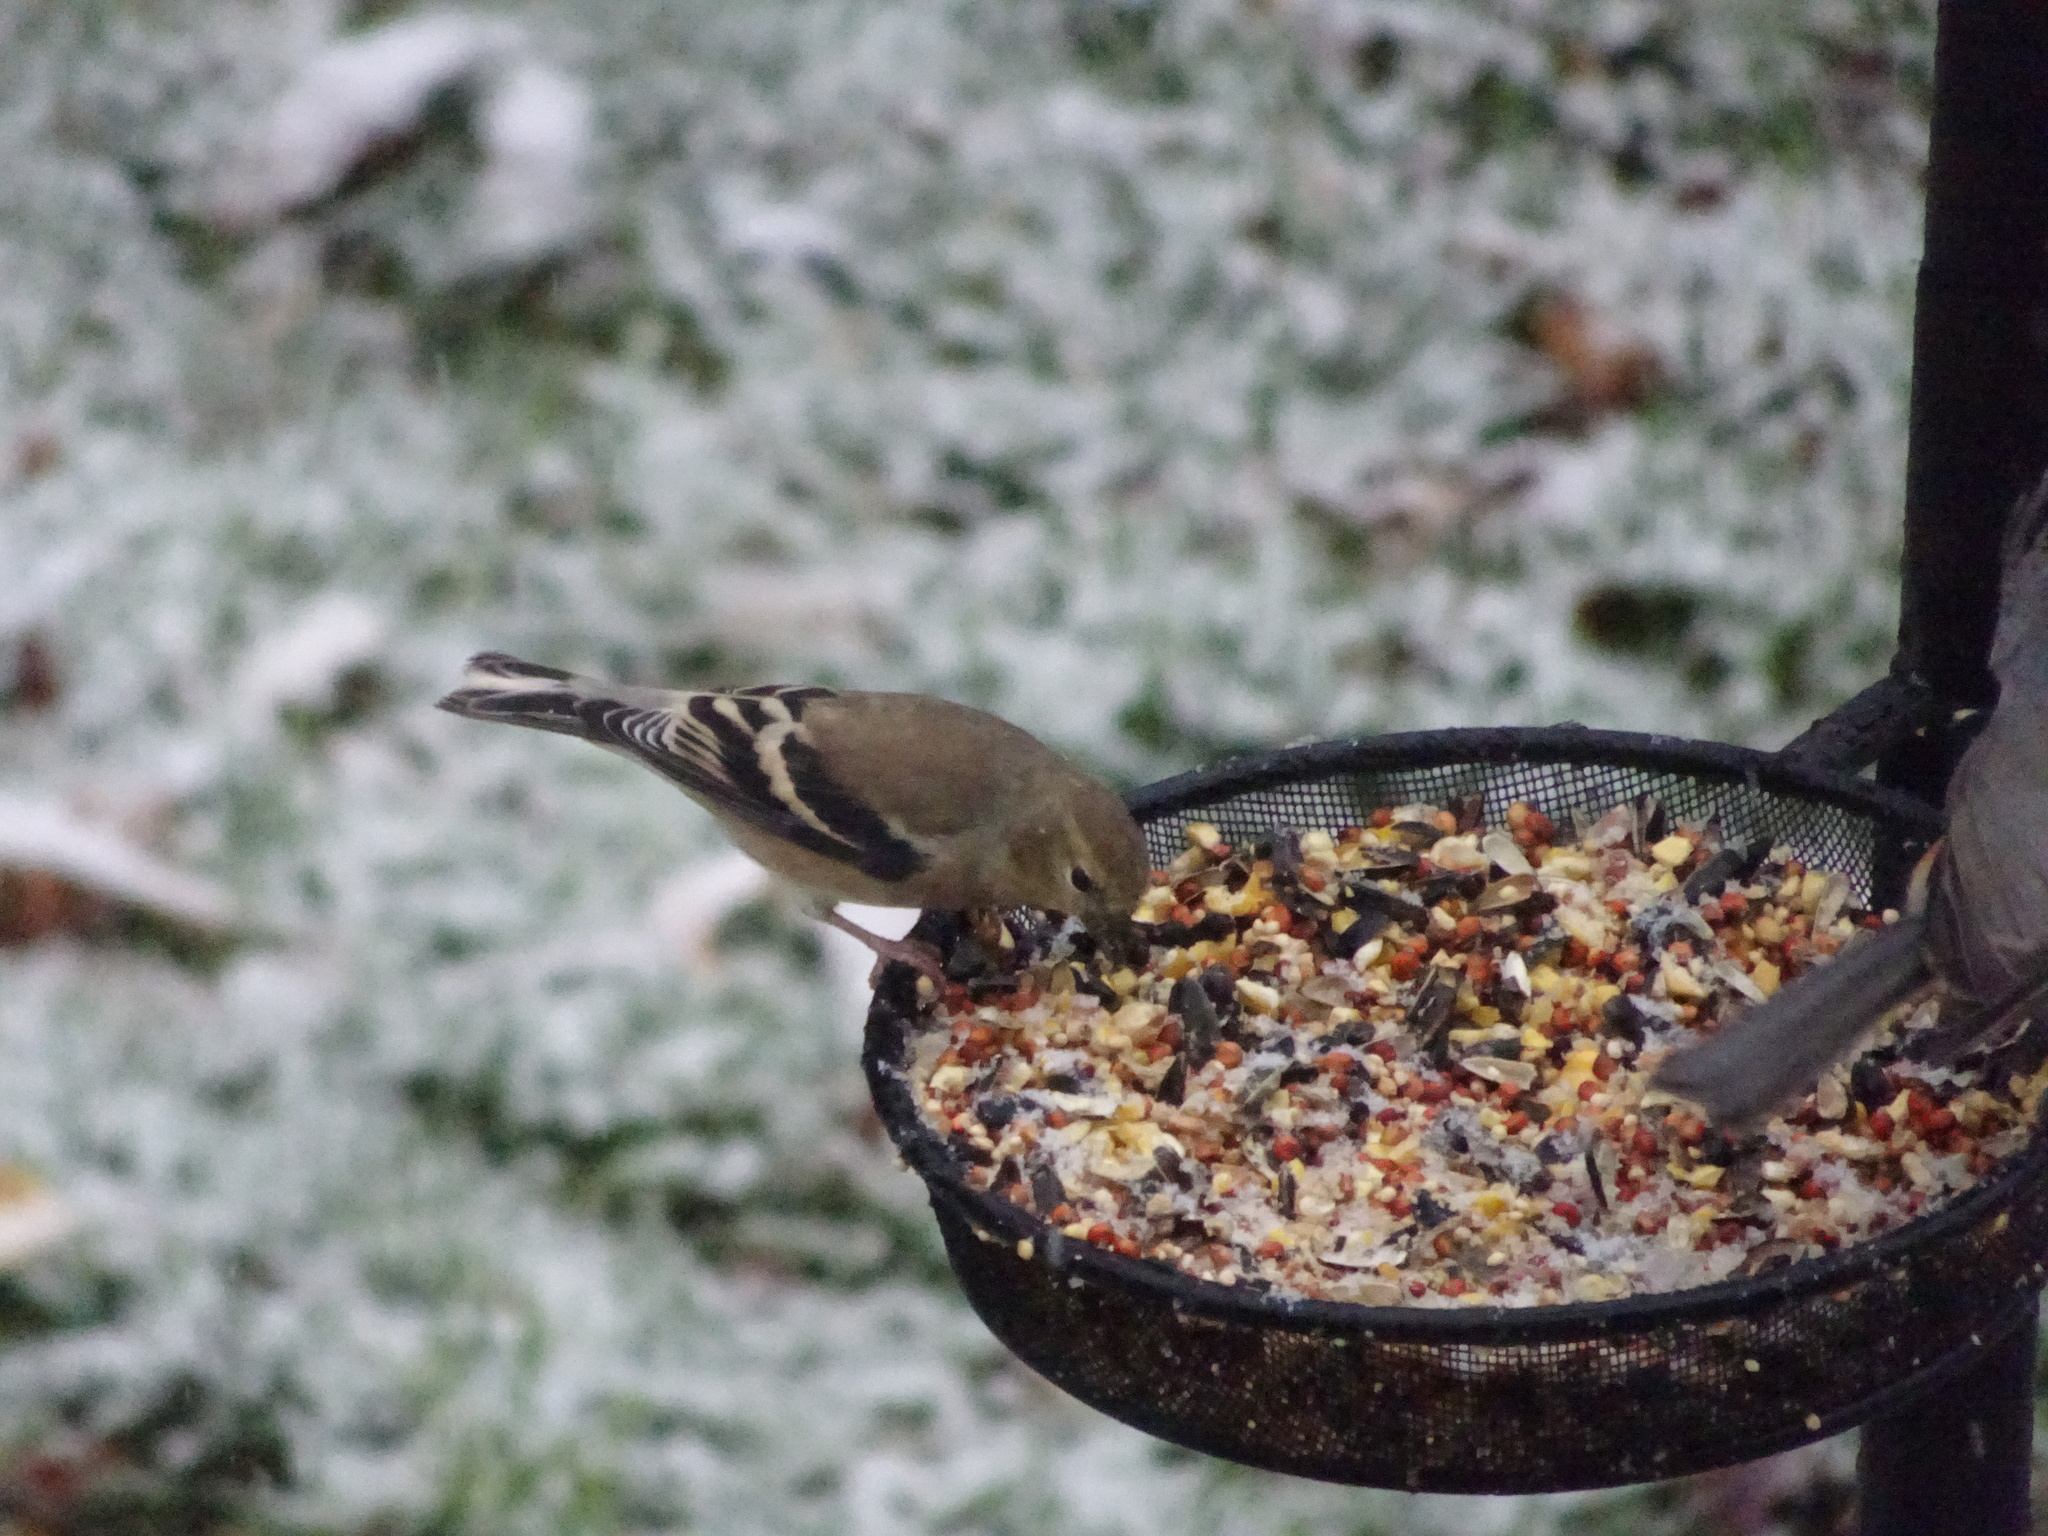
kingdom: Animalia
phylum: Chordata
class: Aves
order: Passeriformes
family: Fringillidae
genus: Spinus
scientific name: Spinus tristis
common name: American goldfinch
